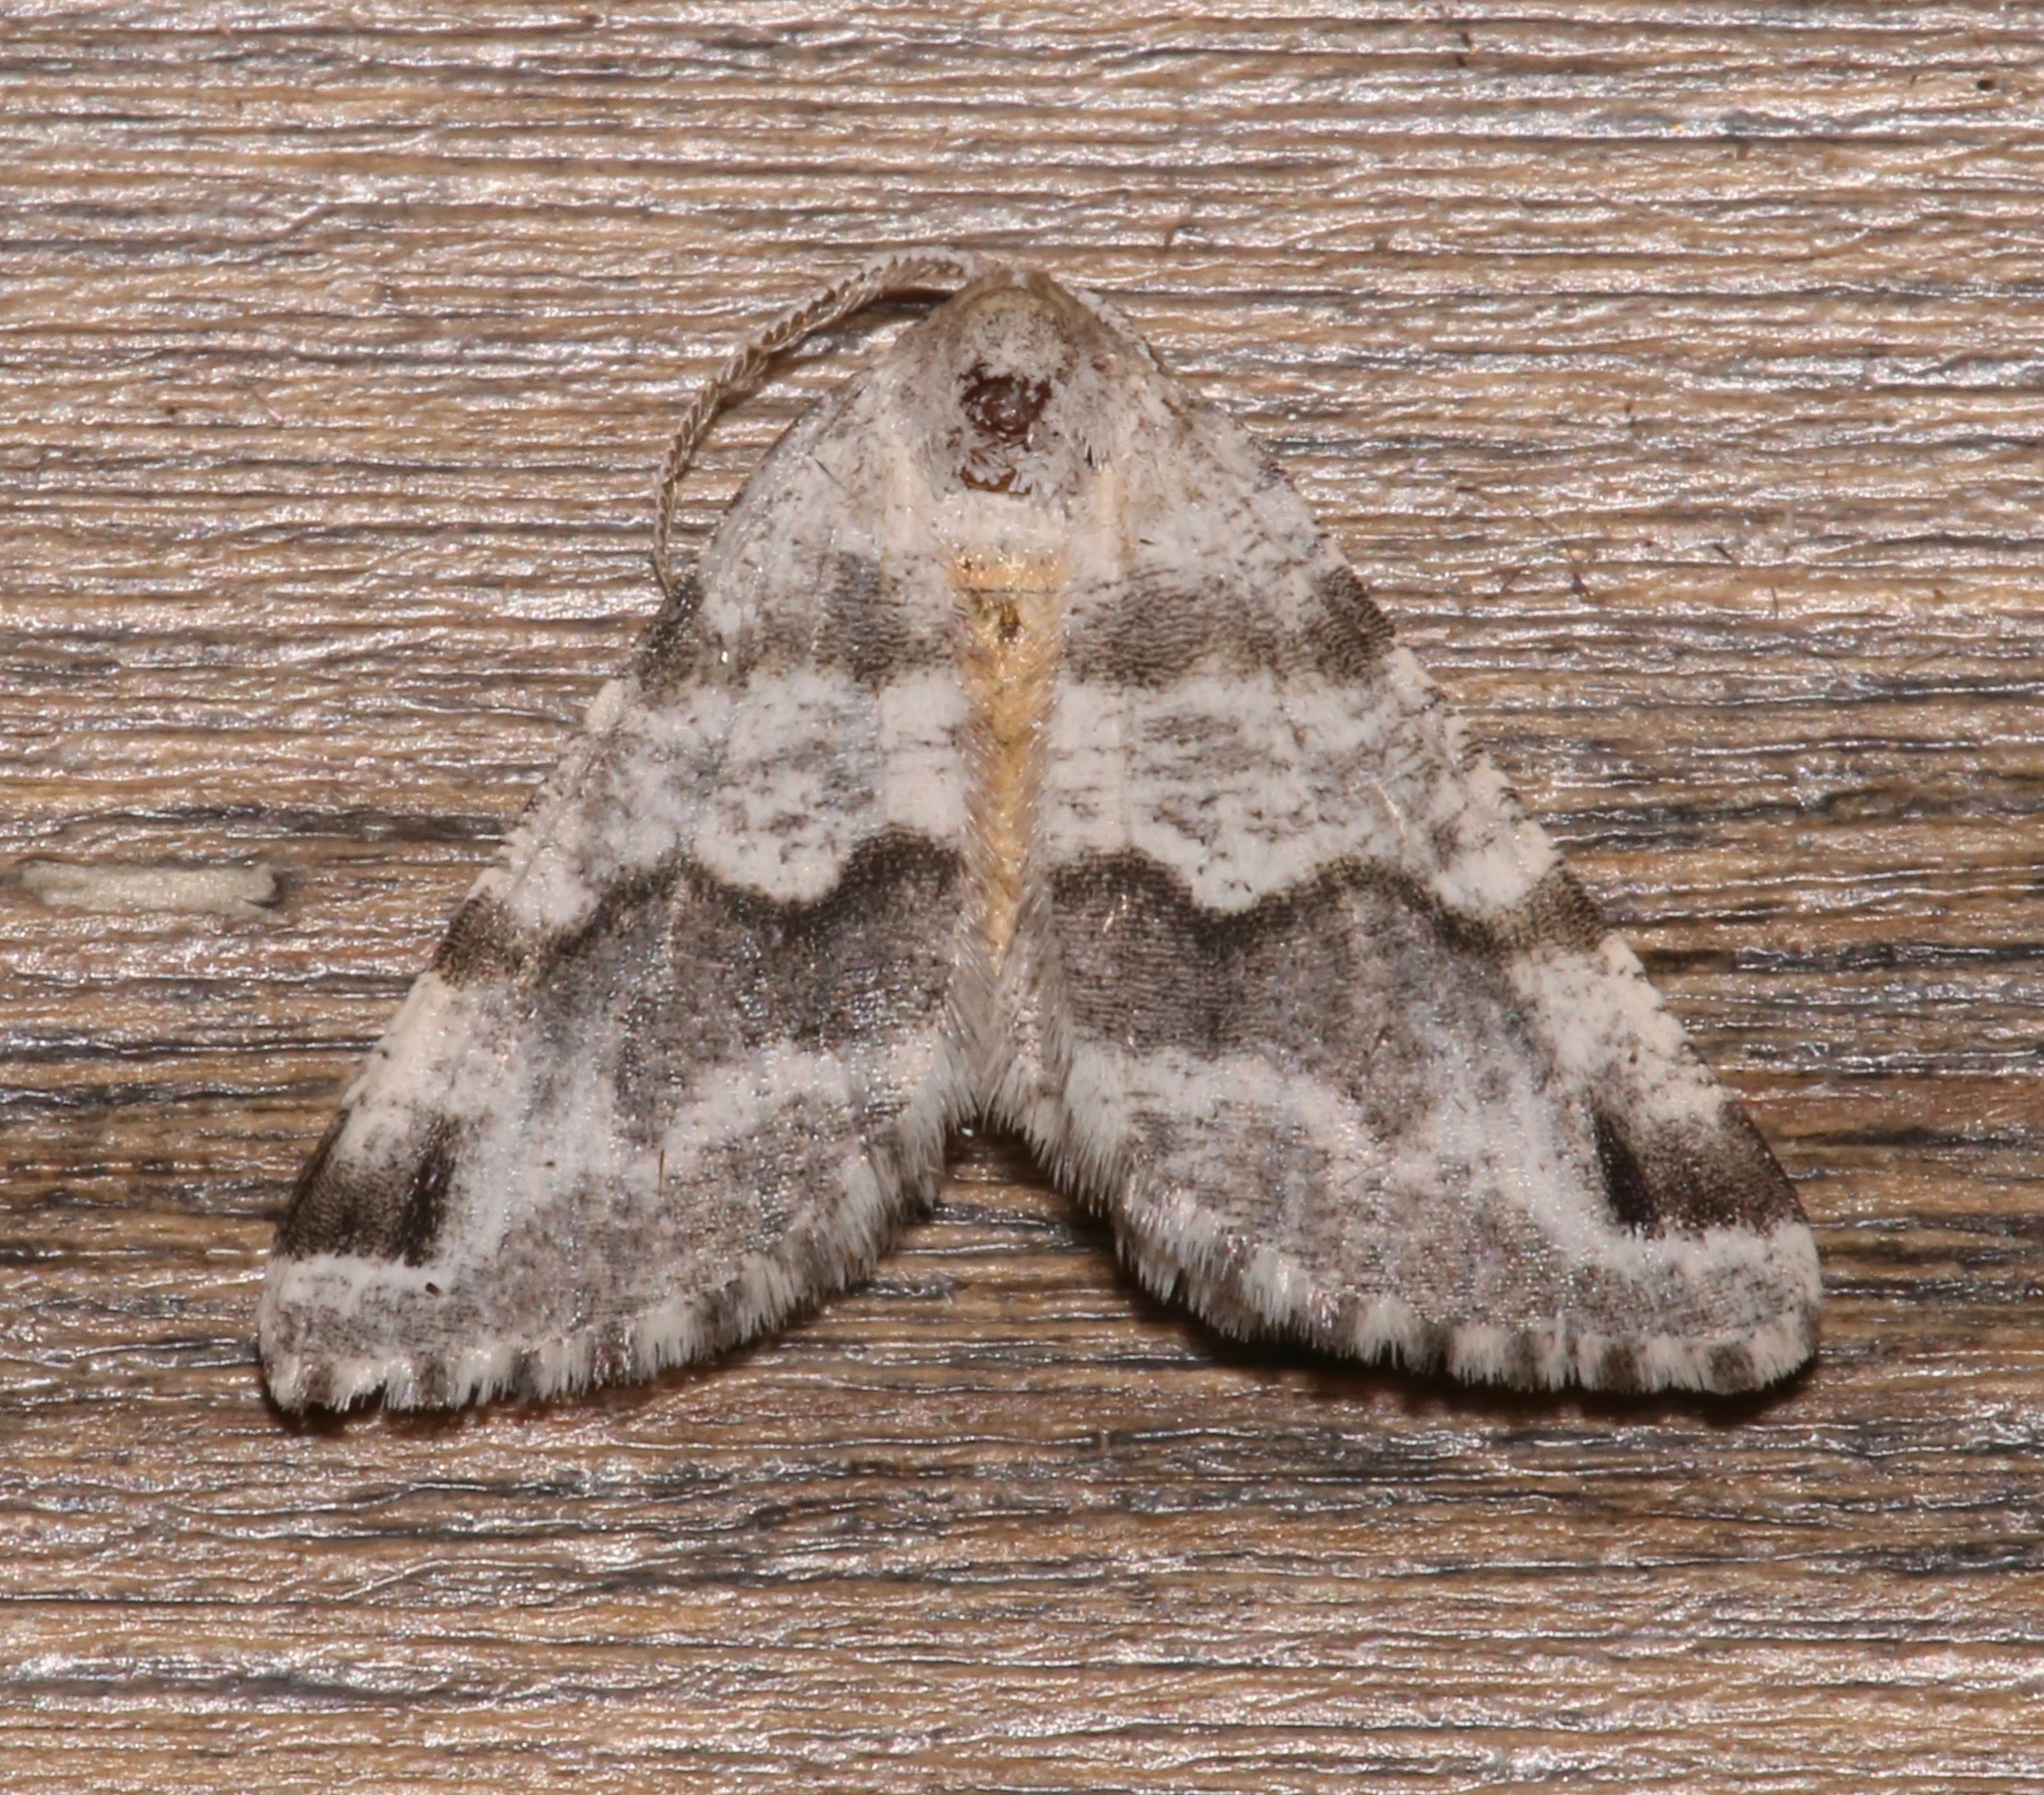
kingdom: Animalia
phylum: Arthropoda
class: Insecta
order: Lepidoptera
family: Geometridae
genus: Macaria
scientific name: Macaria pallipennata
